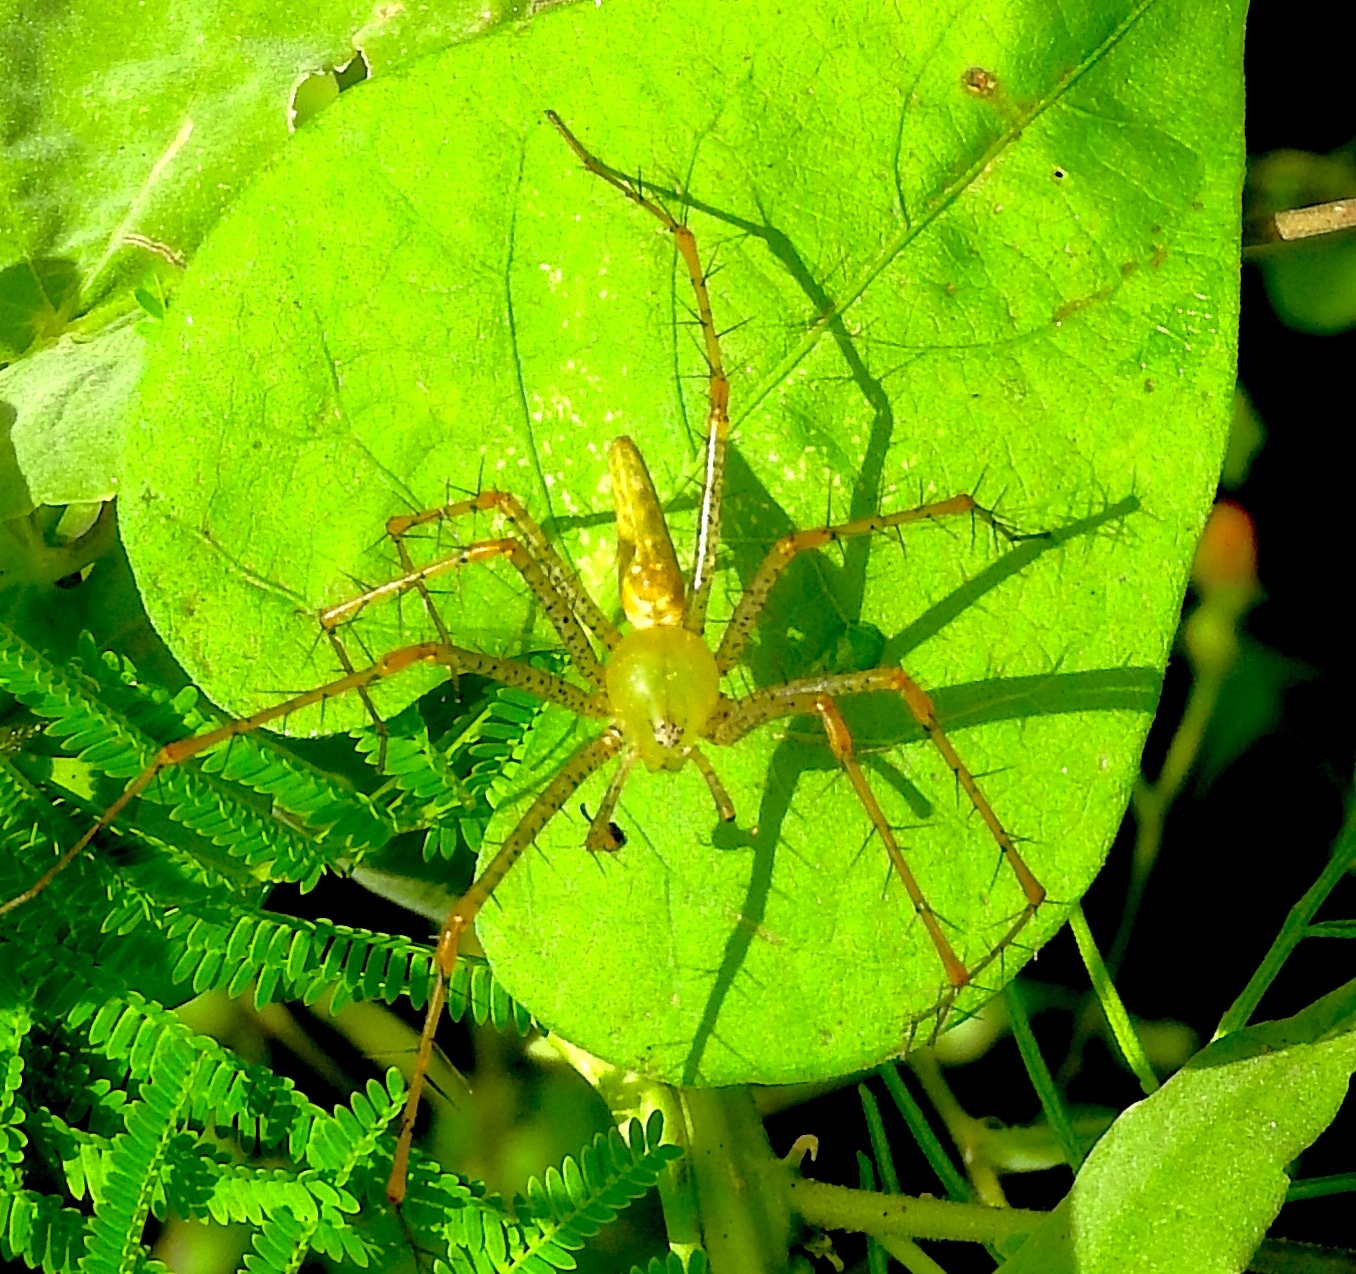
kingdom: Animalia
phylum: Arthropoda
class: Arachnida
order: Araneae
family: Oxyopidae
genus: Peucetia
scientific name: Peucetia viridans
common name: Lynx spiders
